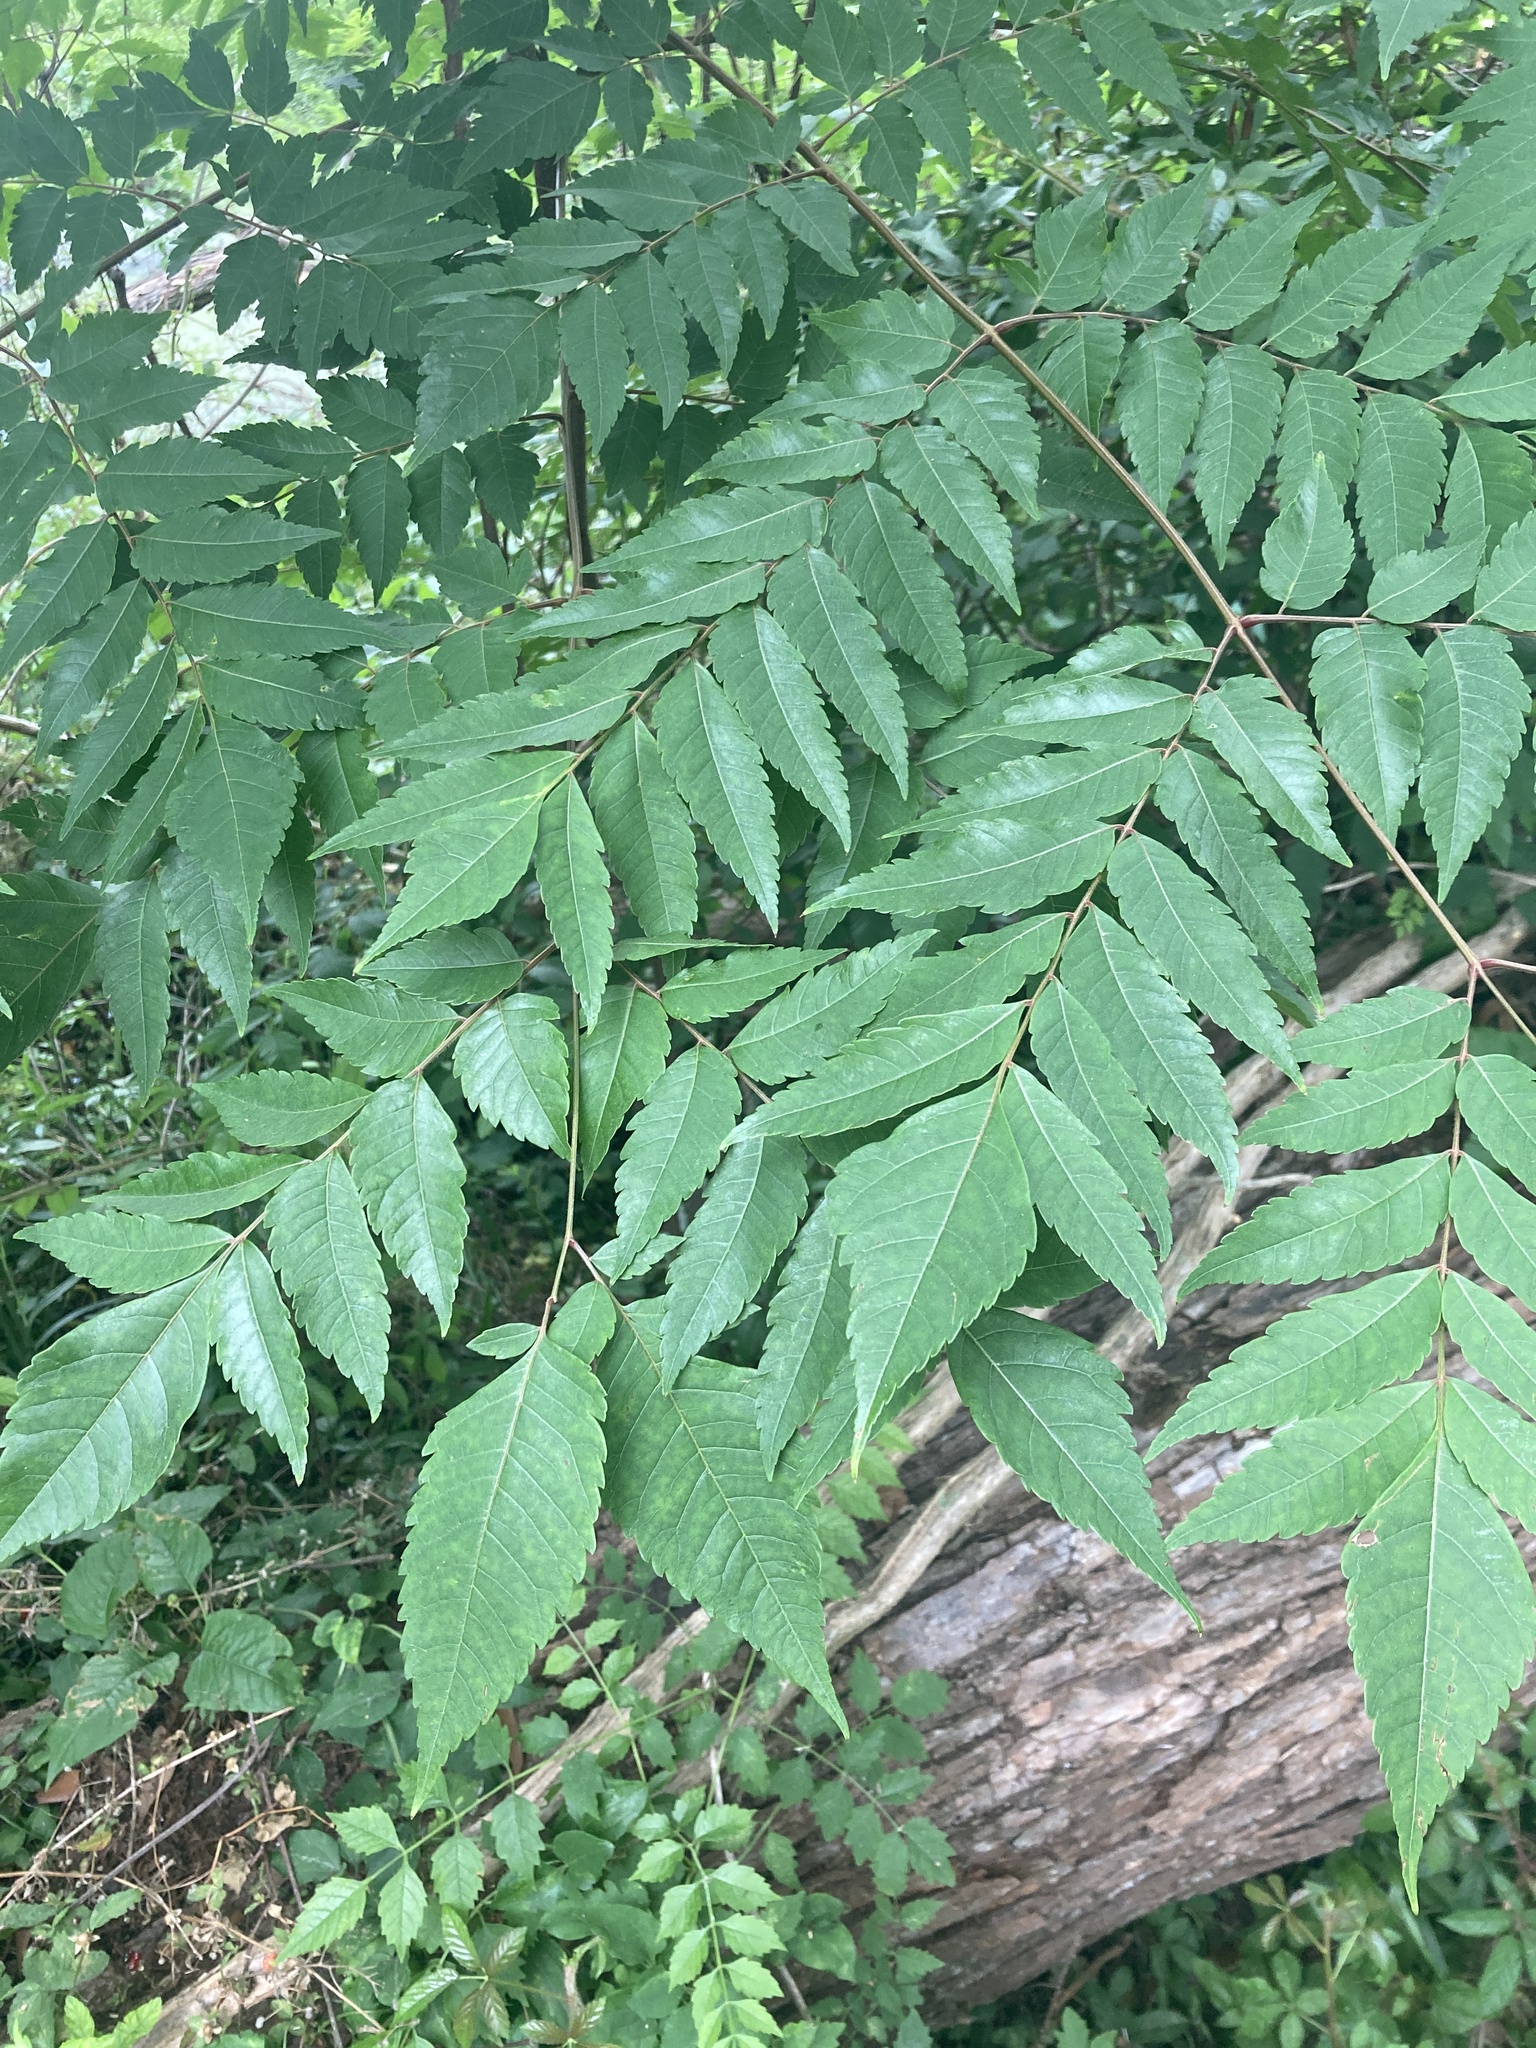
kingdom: Plantae
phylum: Tracheophyta
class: Magnoliopsida
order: Sapindales
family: Sapindaceae
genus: Koelreuteria
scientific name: Koelreuteria paniculata
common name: Pride-of-india
